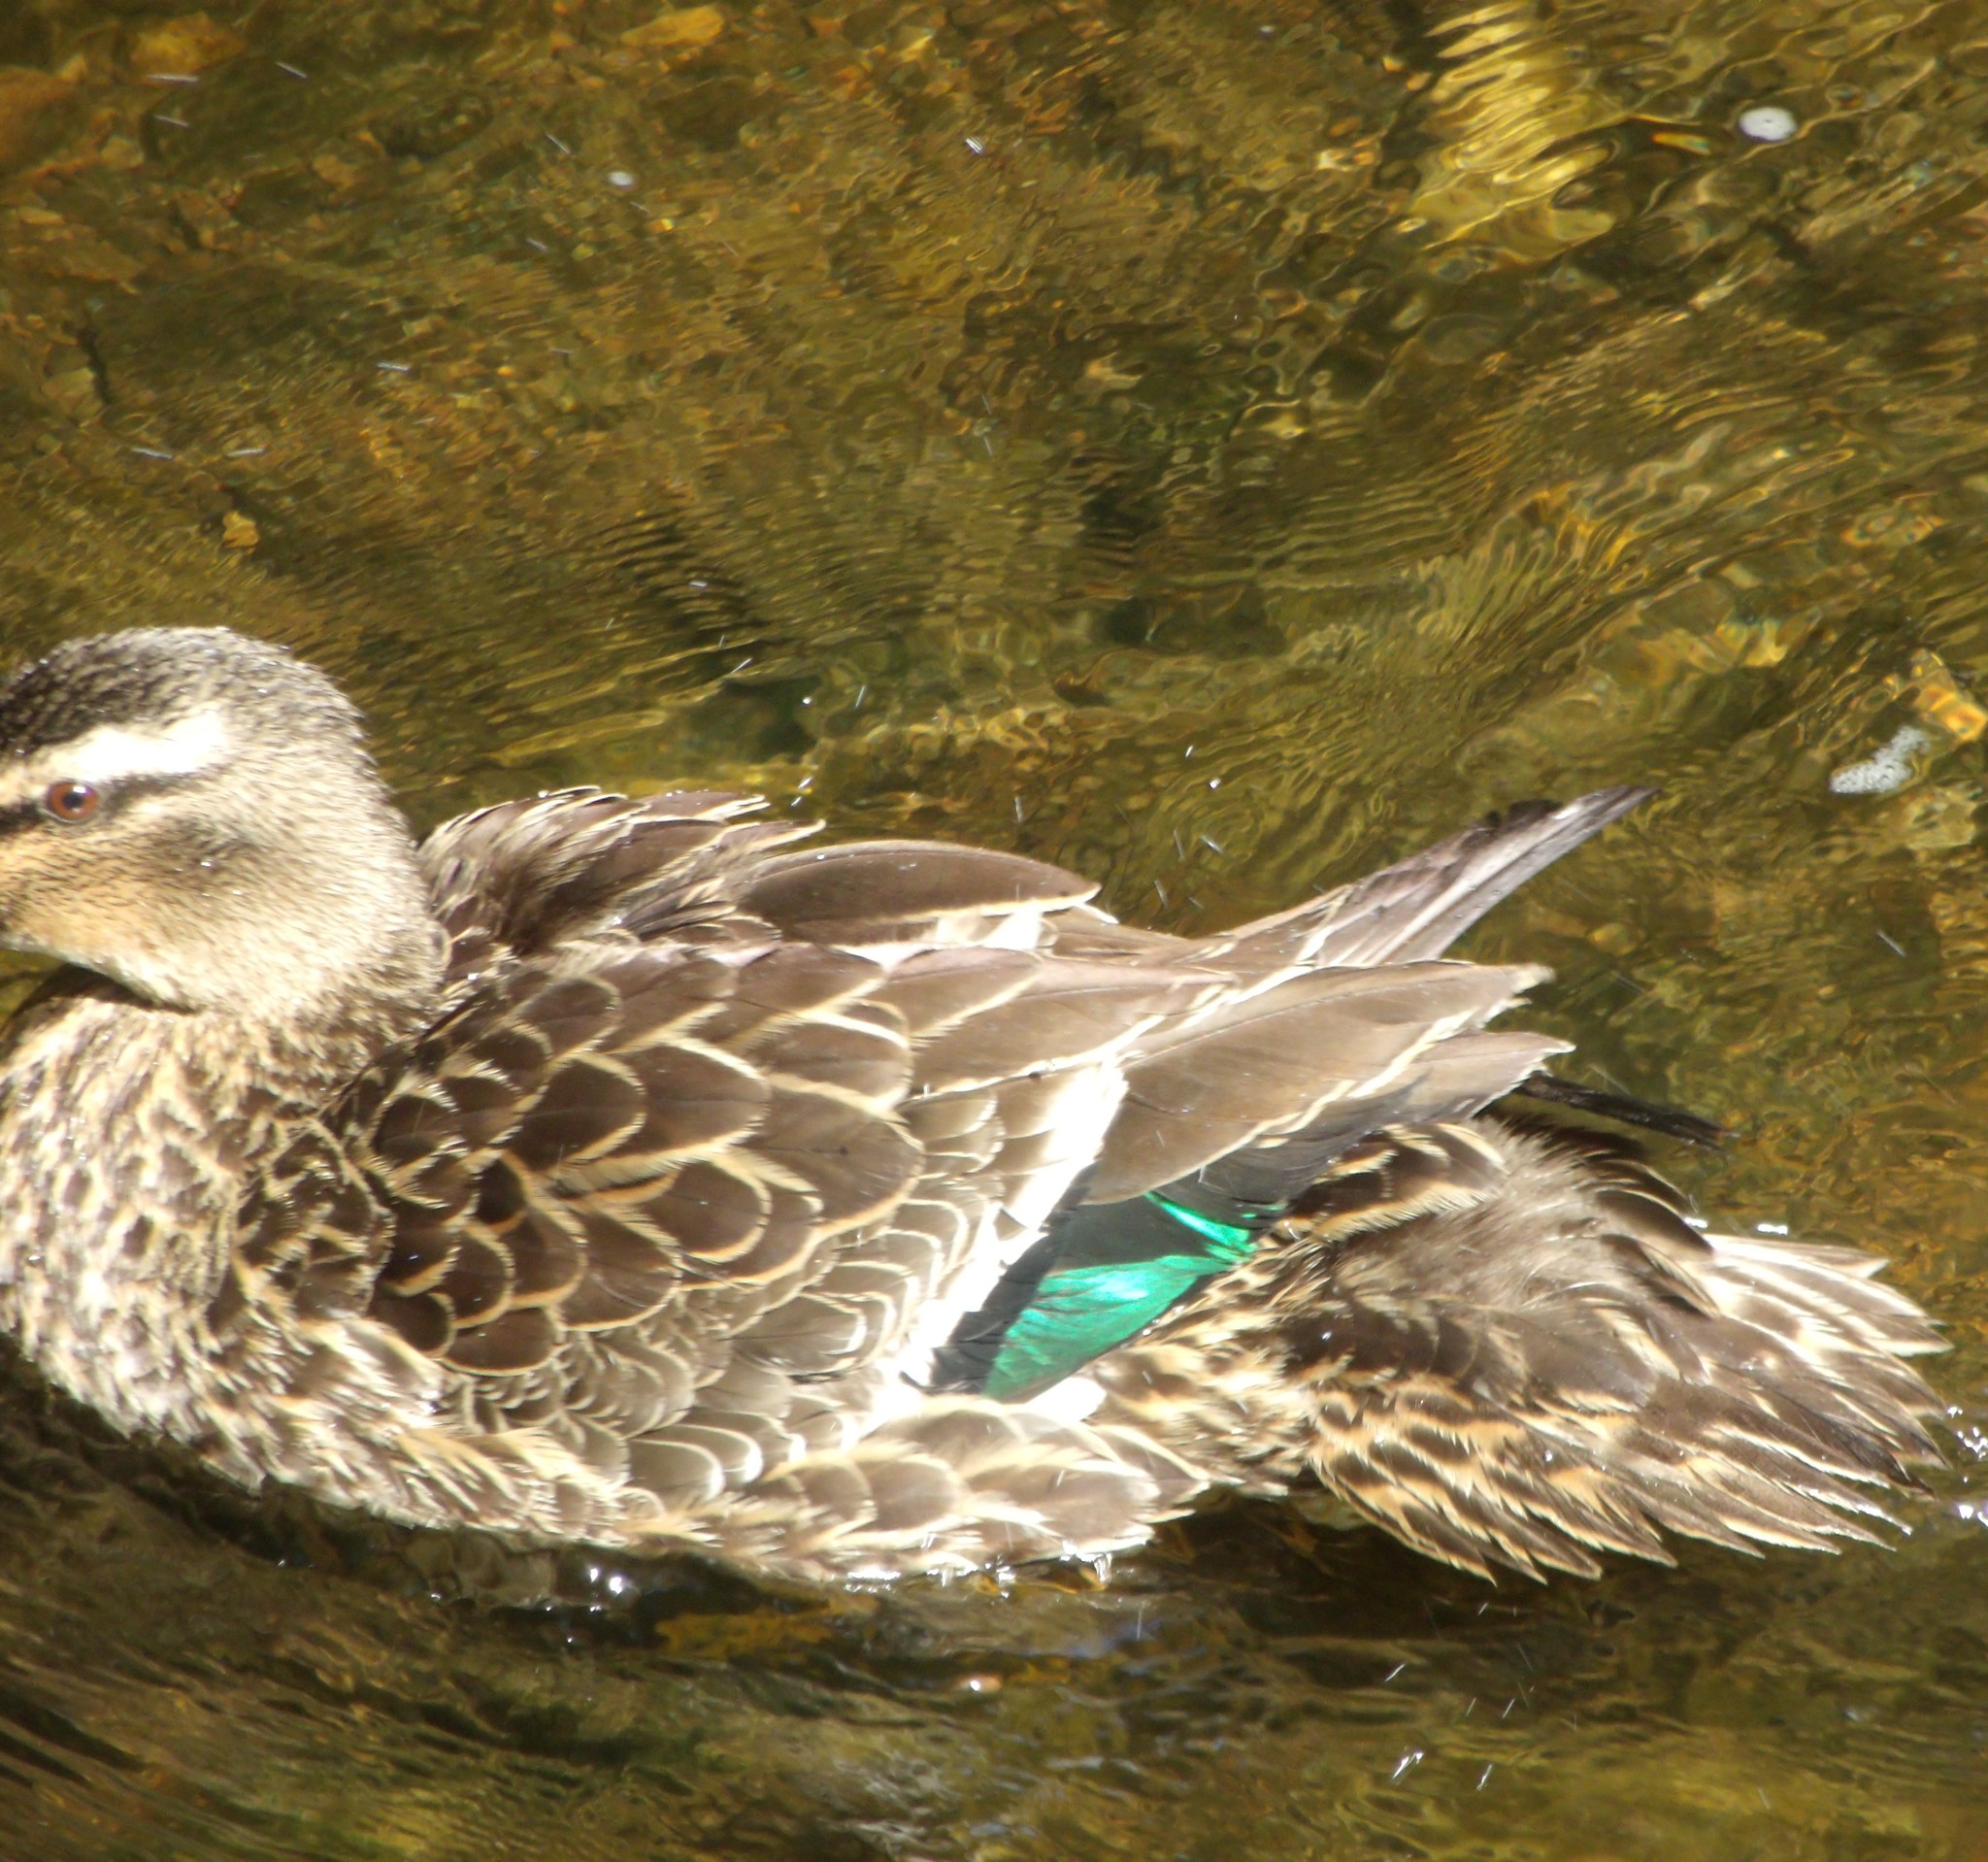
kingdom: Animalia
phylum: Chordata
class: Aves
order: Anseriformes
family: Anatidae
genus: Anas
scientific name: Anas
